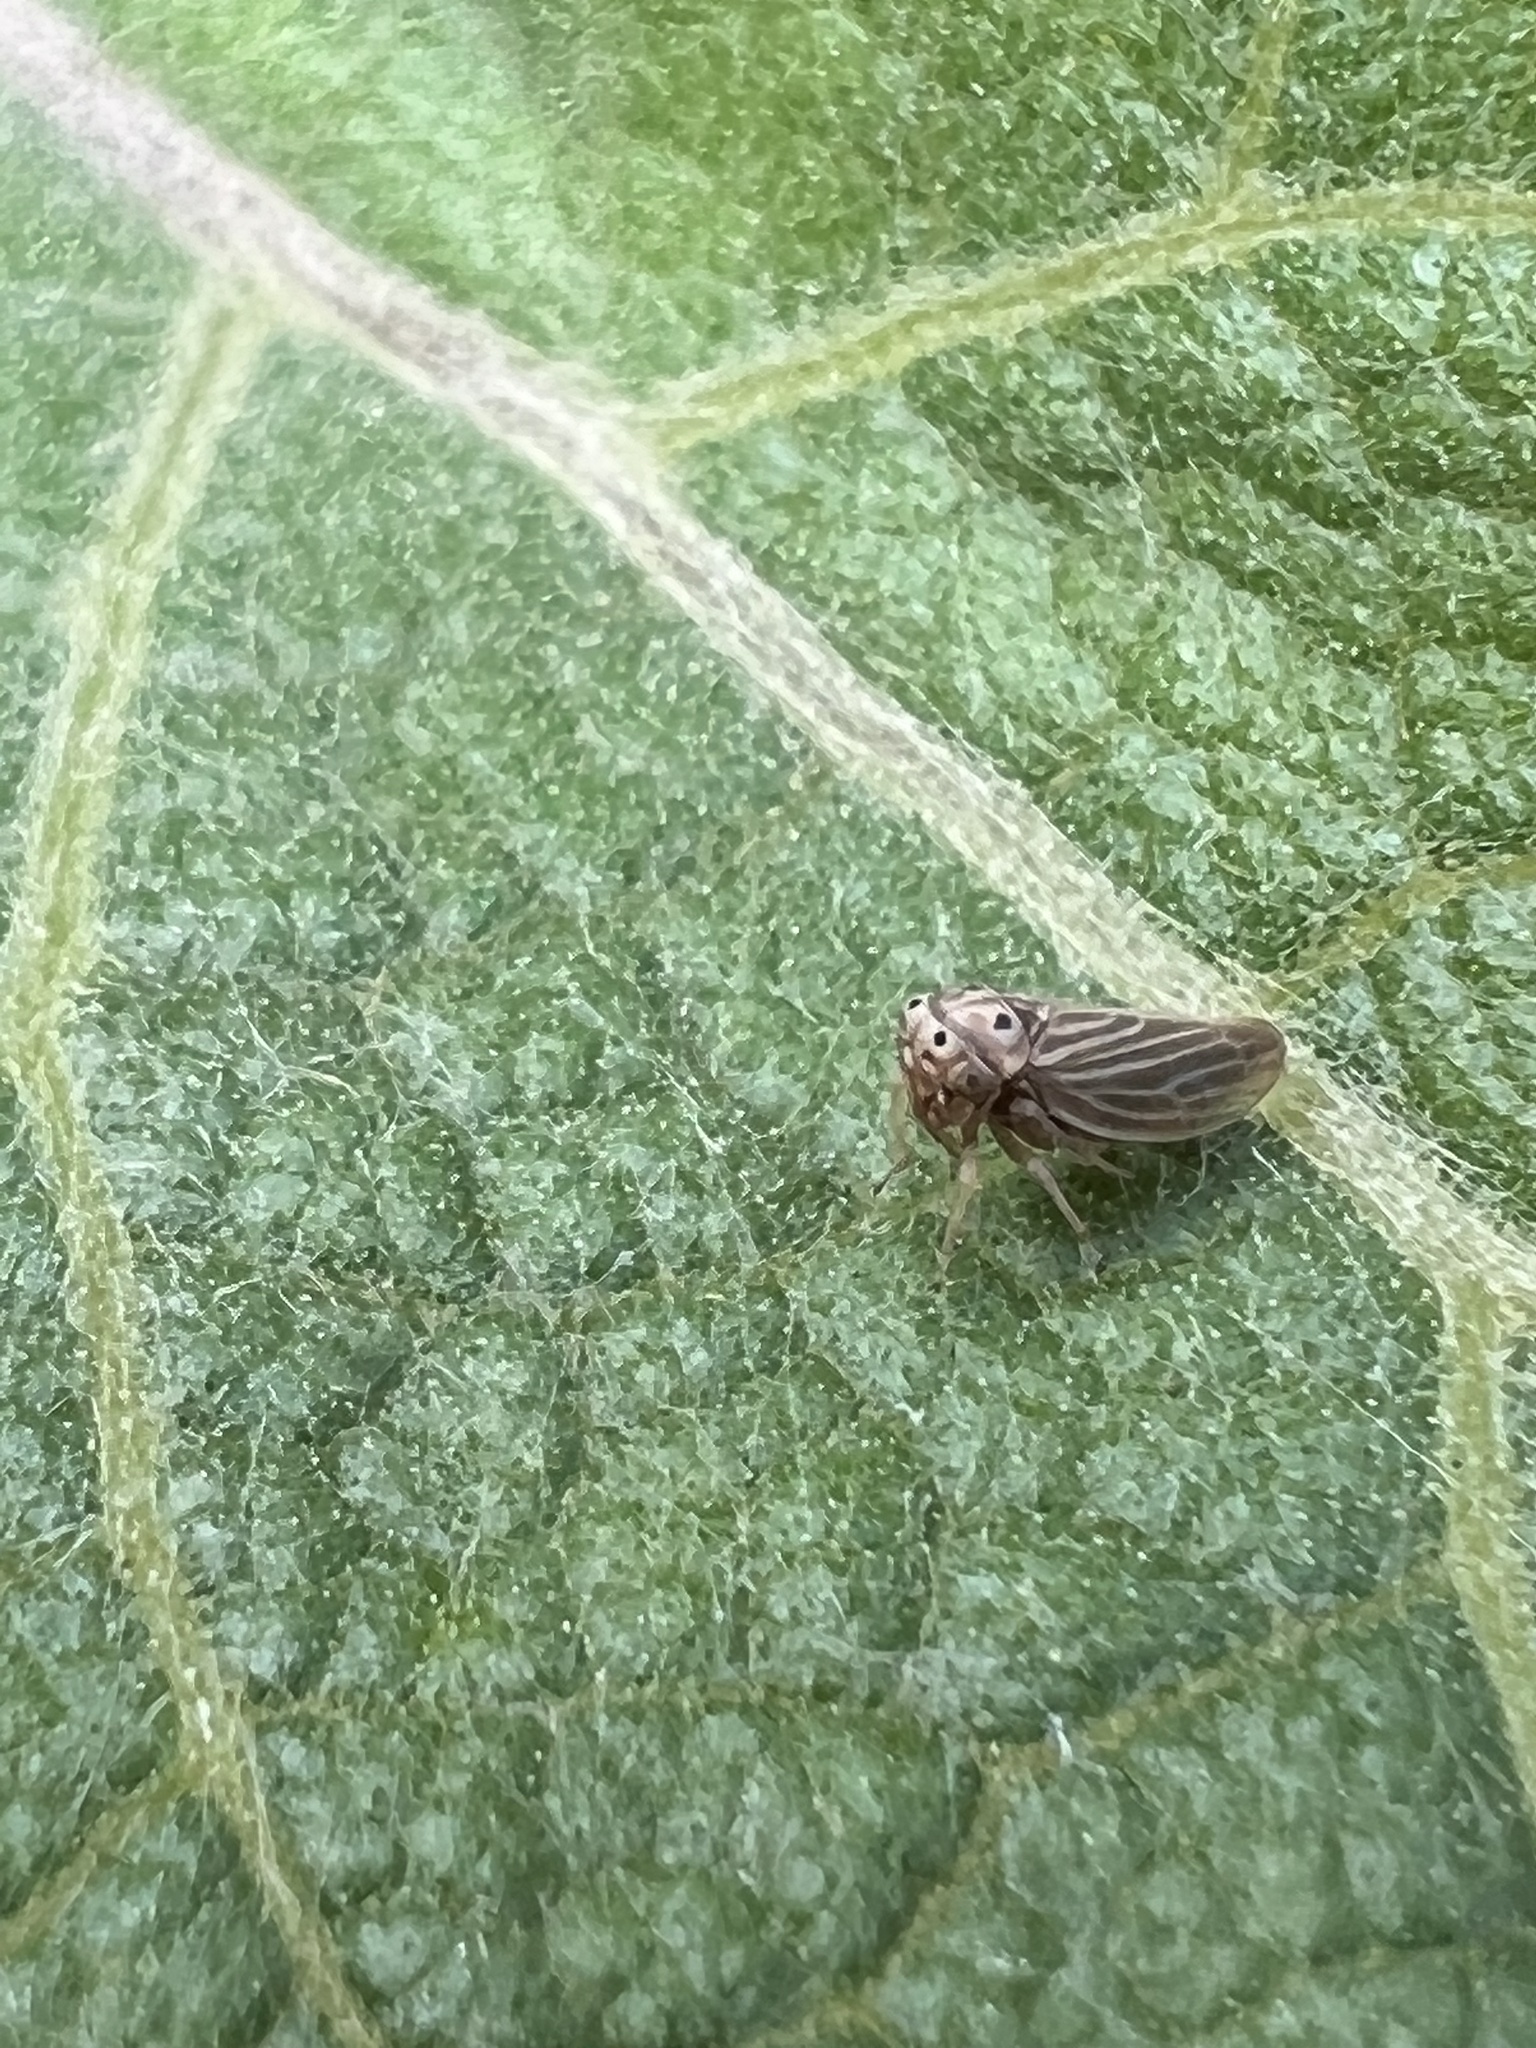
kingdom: Animalia
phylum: Arthropoda
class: Insecta
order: Hemiptera
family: Cicadellidae
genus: Agalliota
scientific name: Agalliota quadripunctata
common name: The four-spotted clover leafhopper
